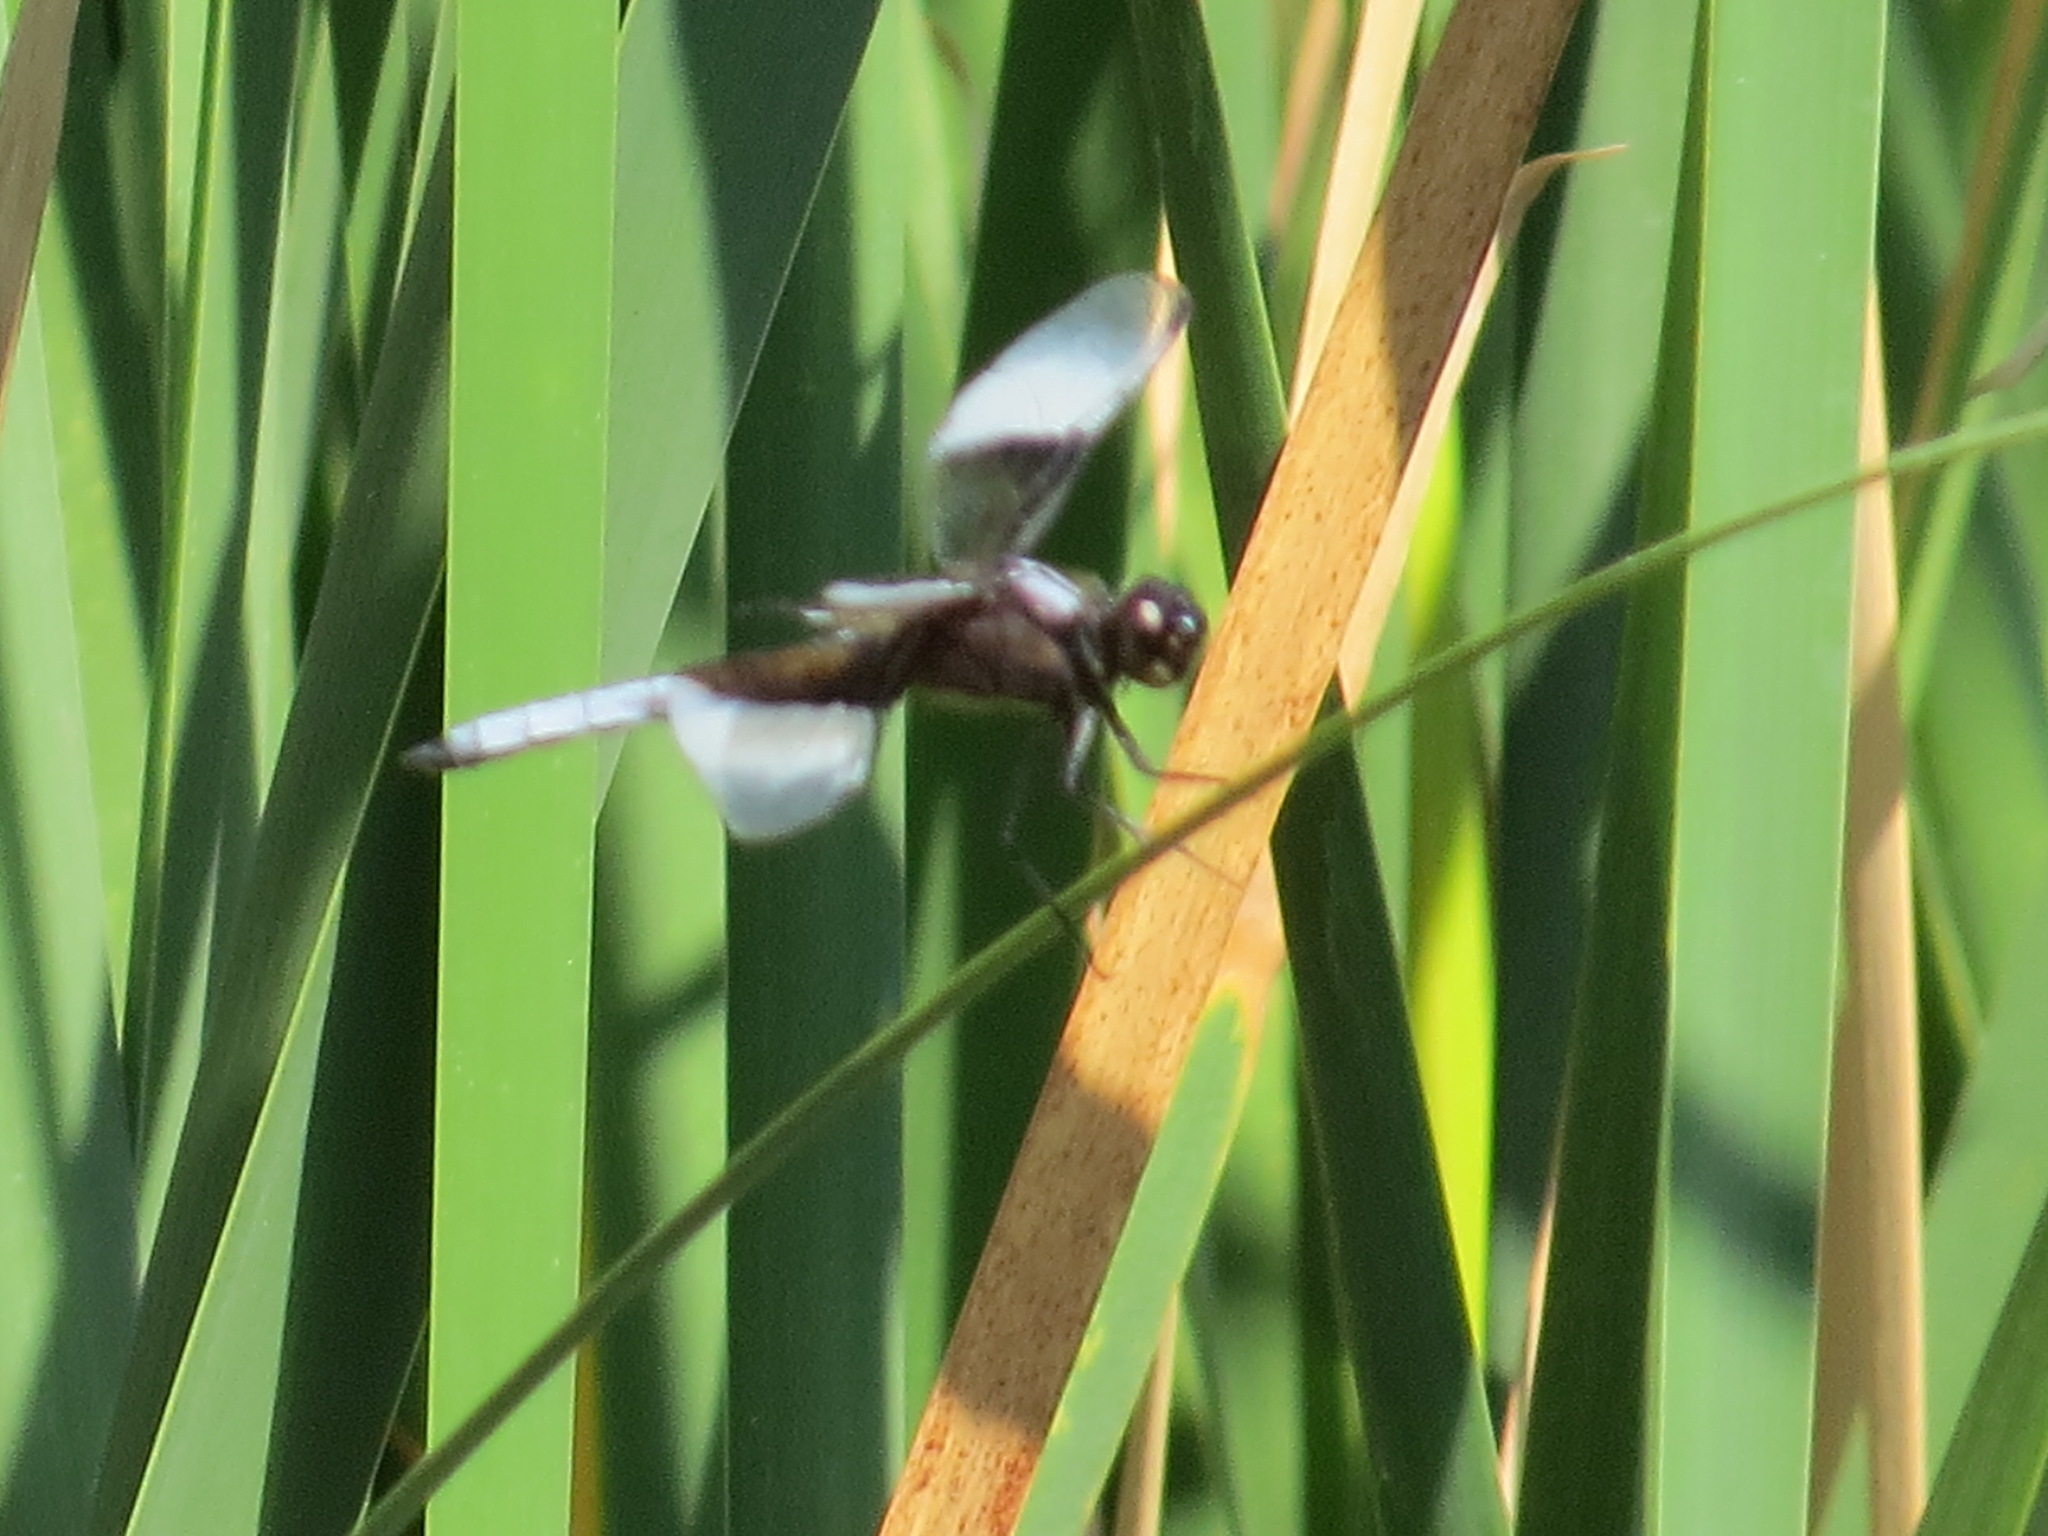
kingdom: Animalia
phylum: Arthropoda
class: Insecta
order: Odonata
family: Libellulidae
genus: Libellula
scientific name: Libellula luctuosa
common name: Widow skimmer
